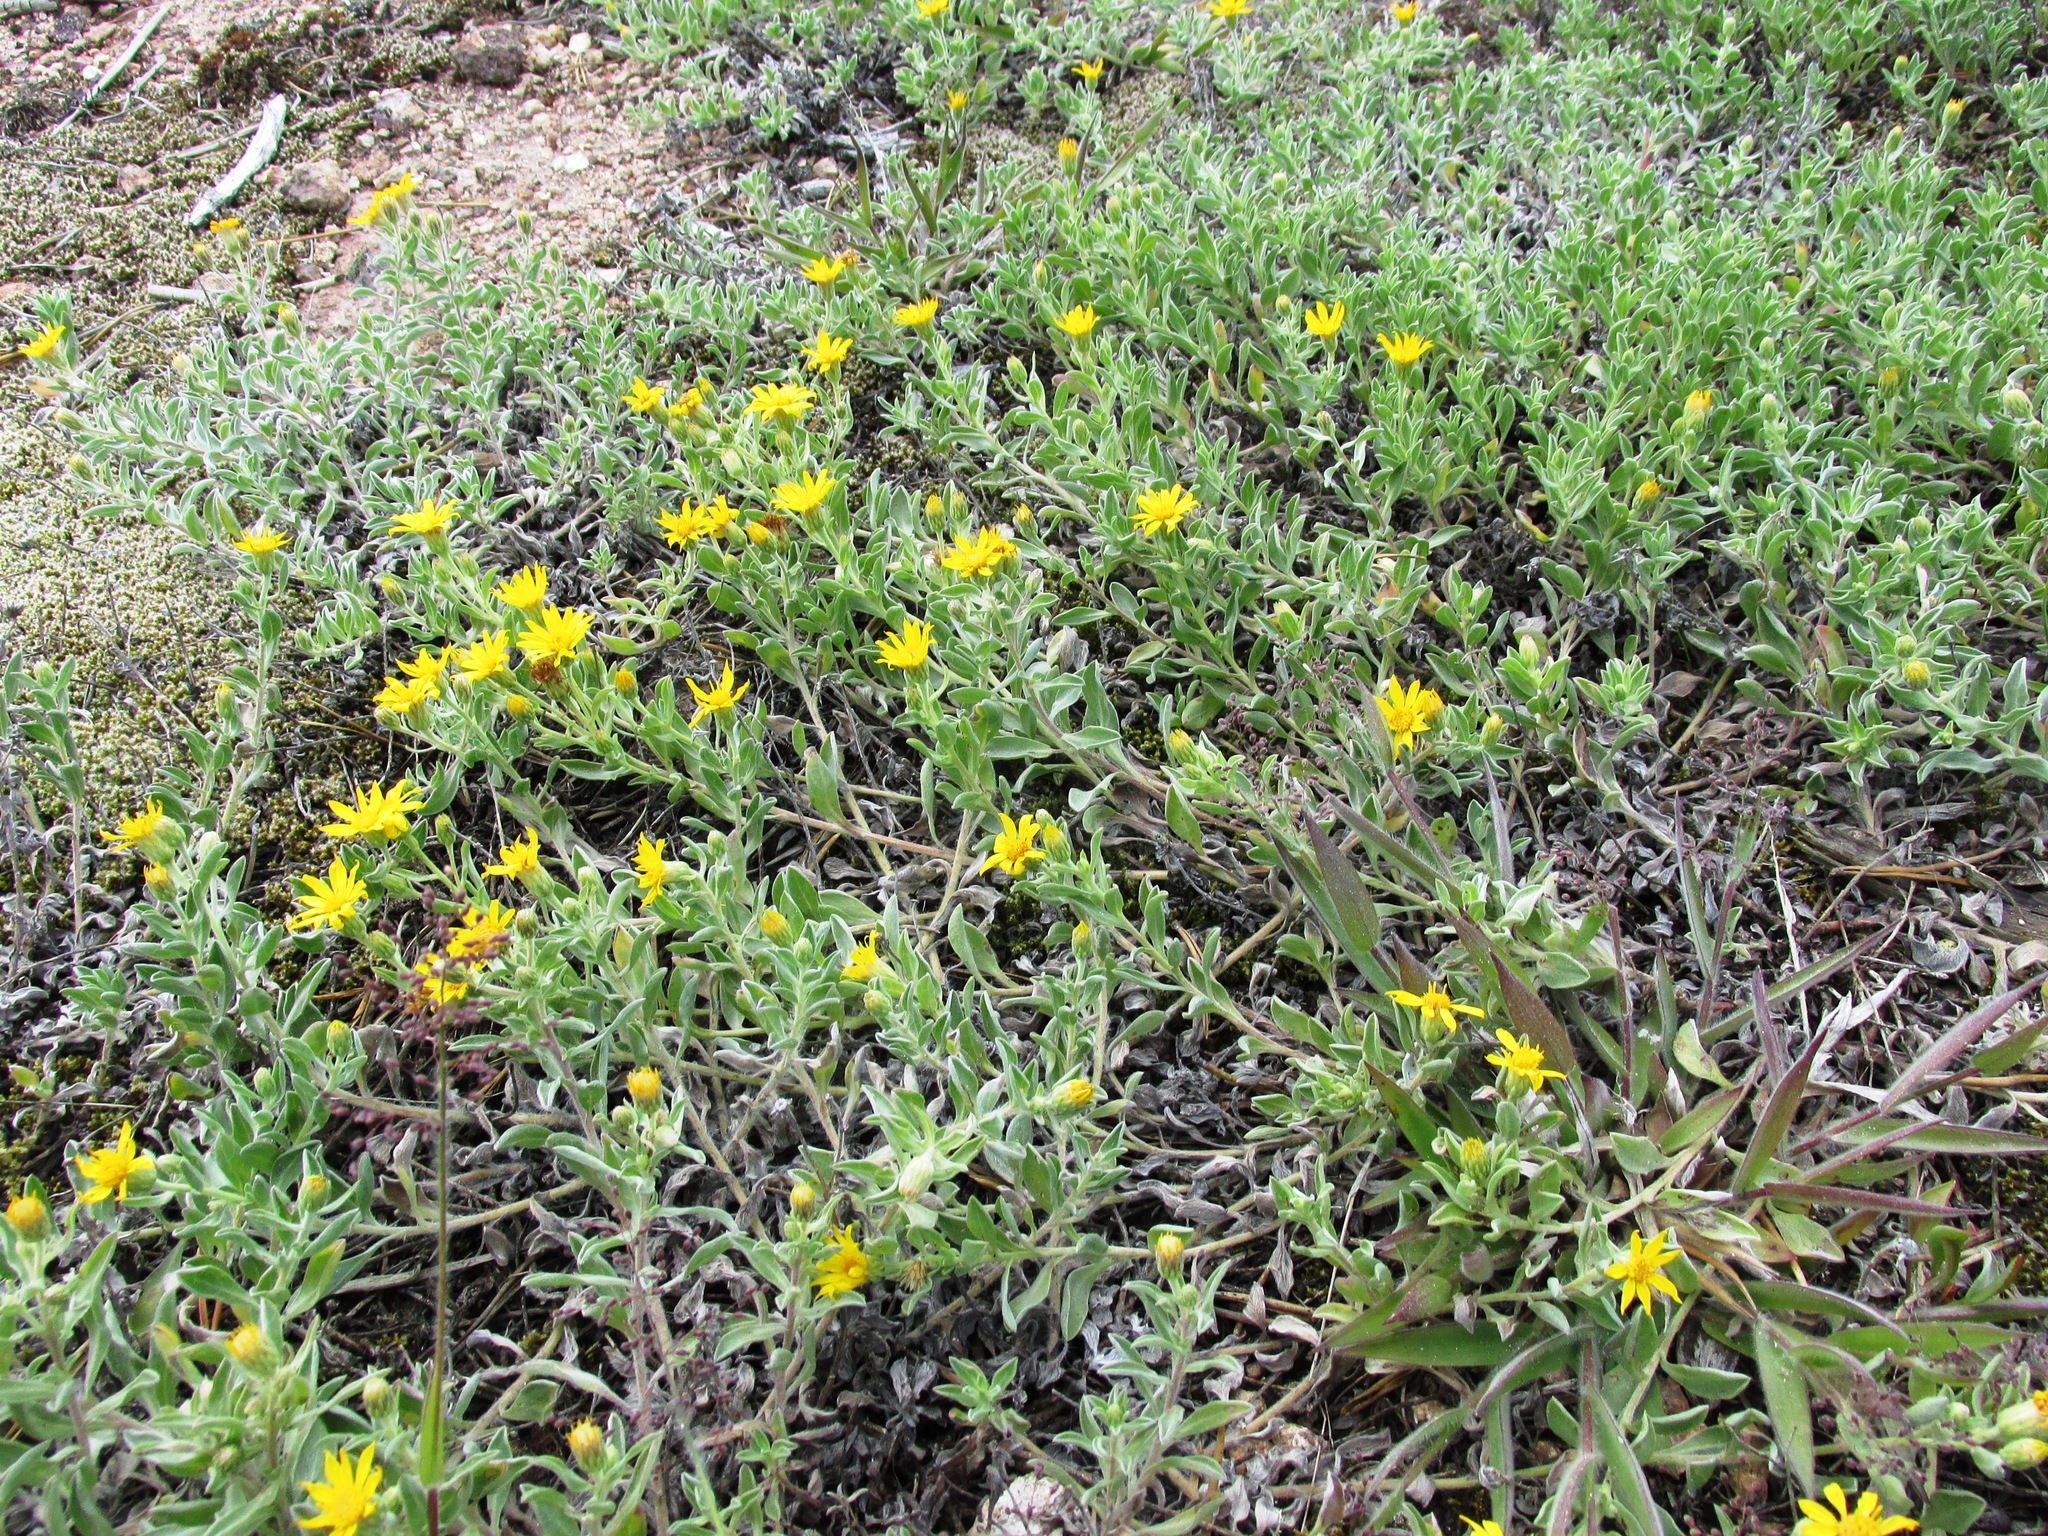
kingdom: Plantae
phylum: Tracheophyta
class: Magnoliopsida
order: Asterales
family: Asteraceae
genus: Heterotheca
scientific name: Heterotheca depressa
